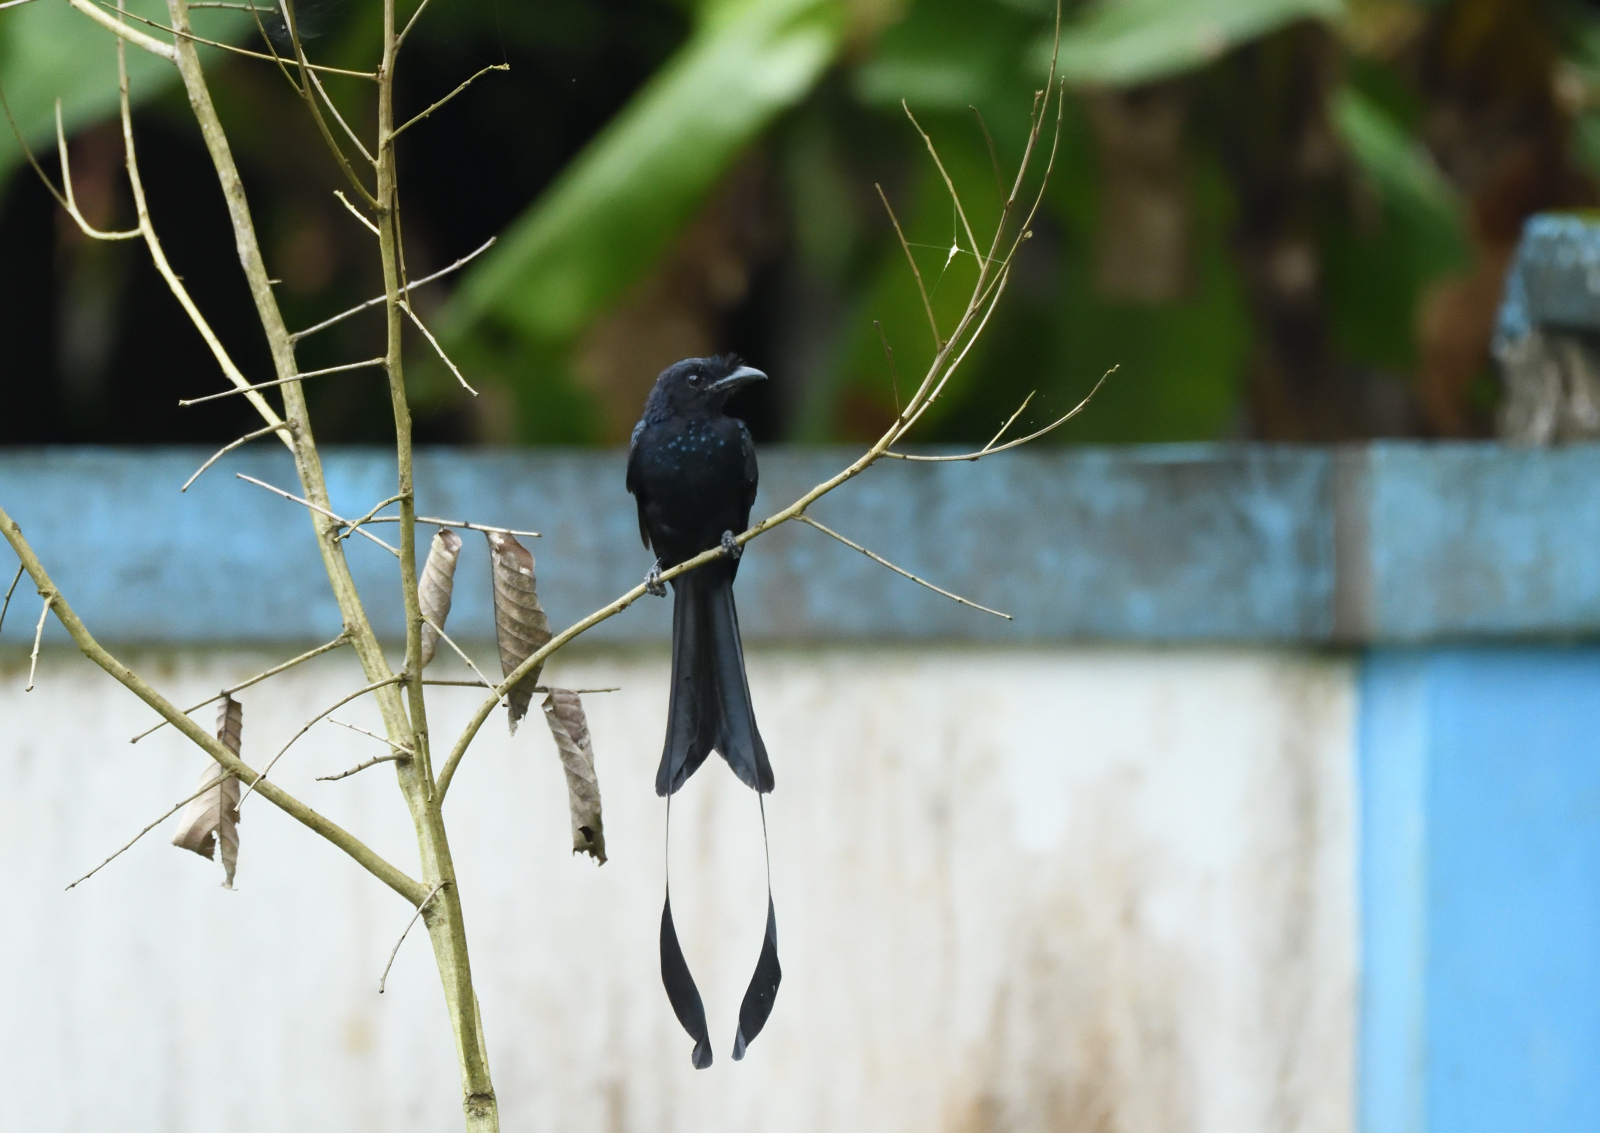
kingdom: Animalia
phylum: Chordata
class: Aves
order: Passeriformes
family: Dicruridae
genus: Dicrurus
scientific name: Dicrurus paradiseus
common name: Greater racket-tailed drongo
